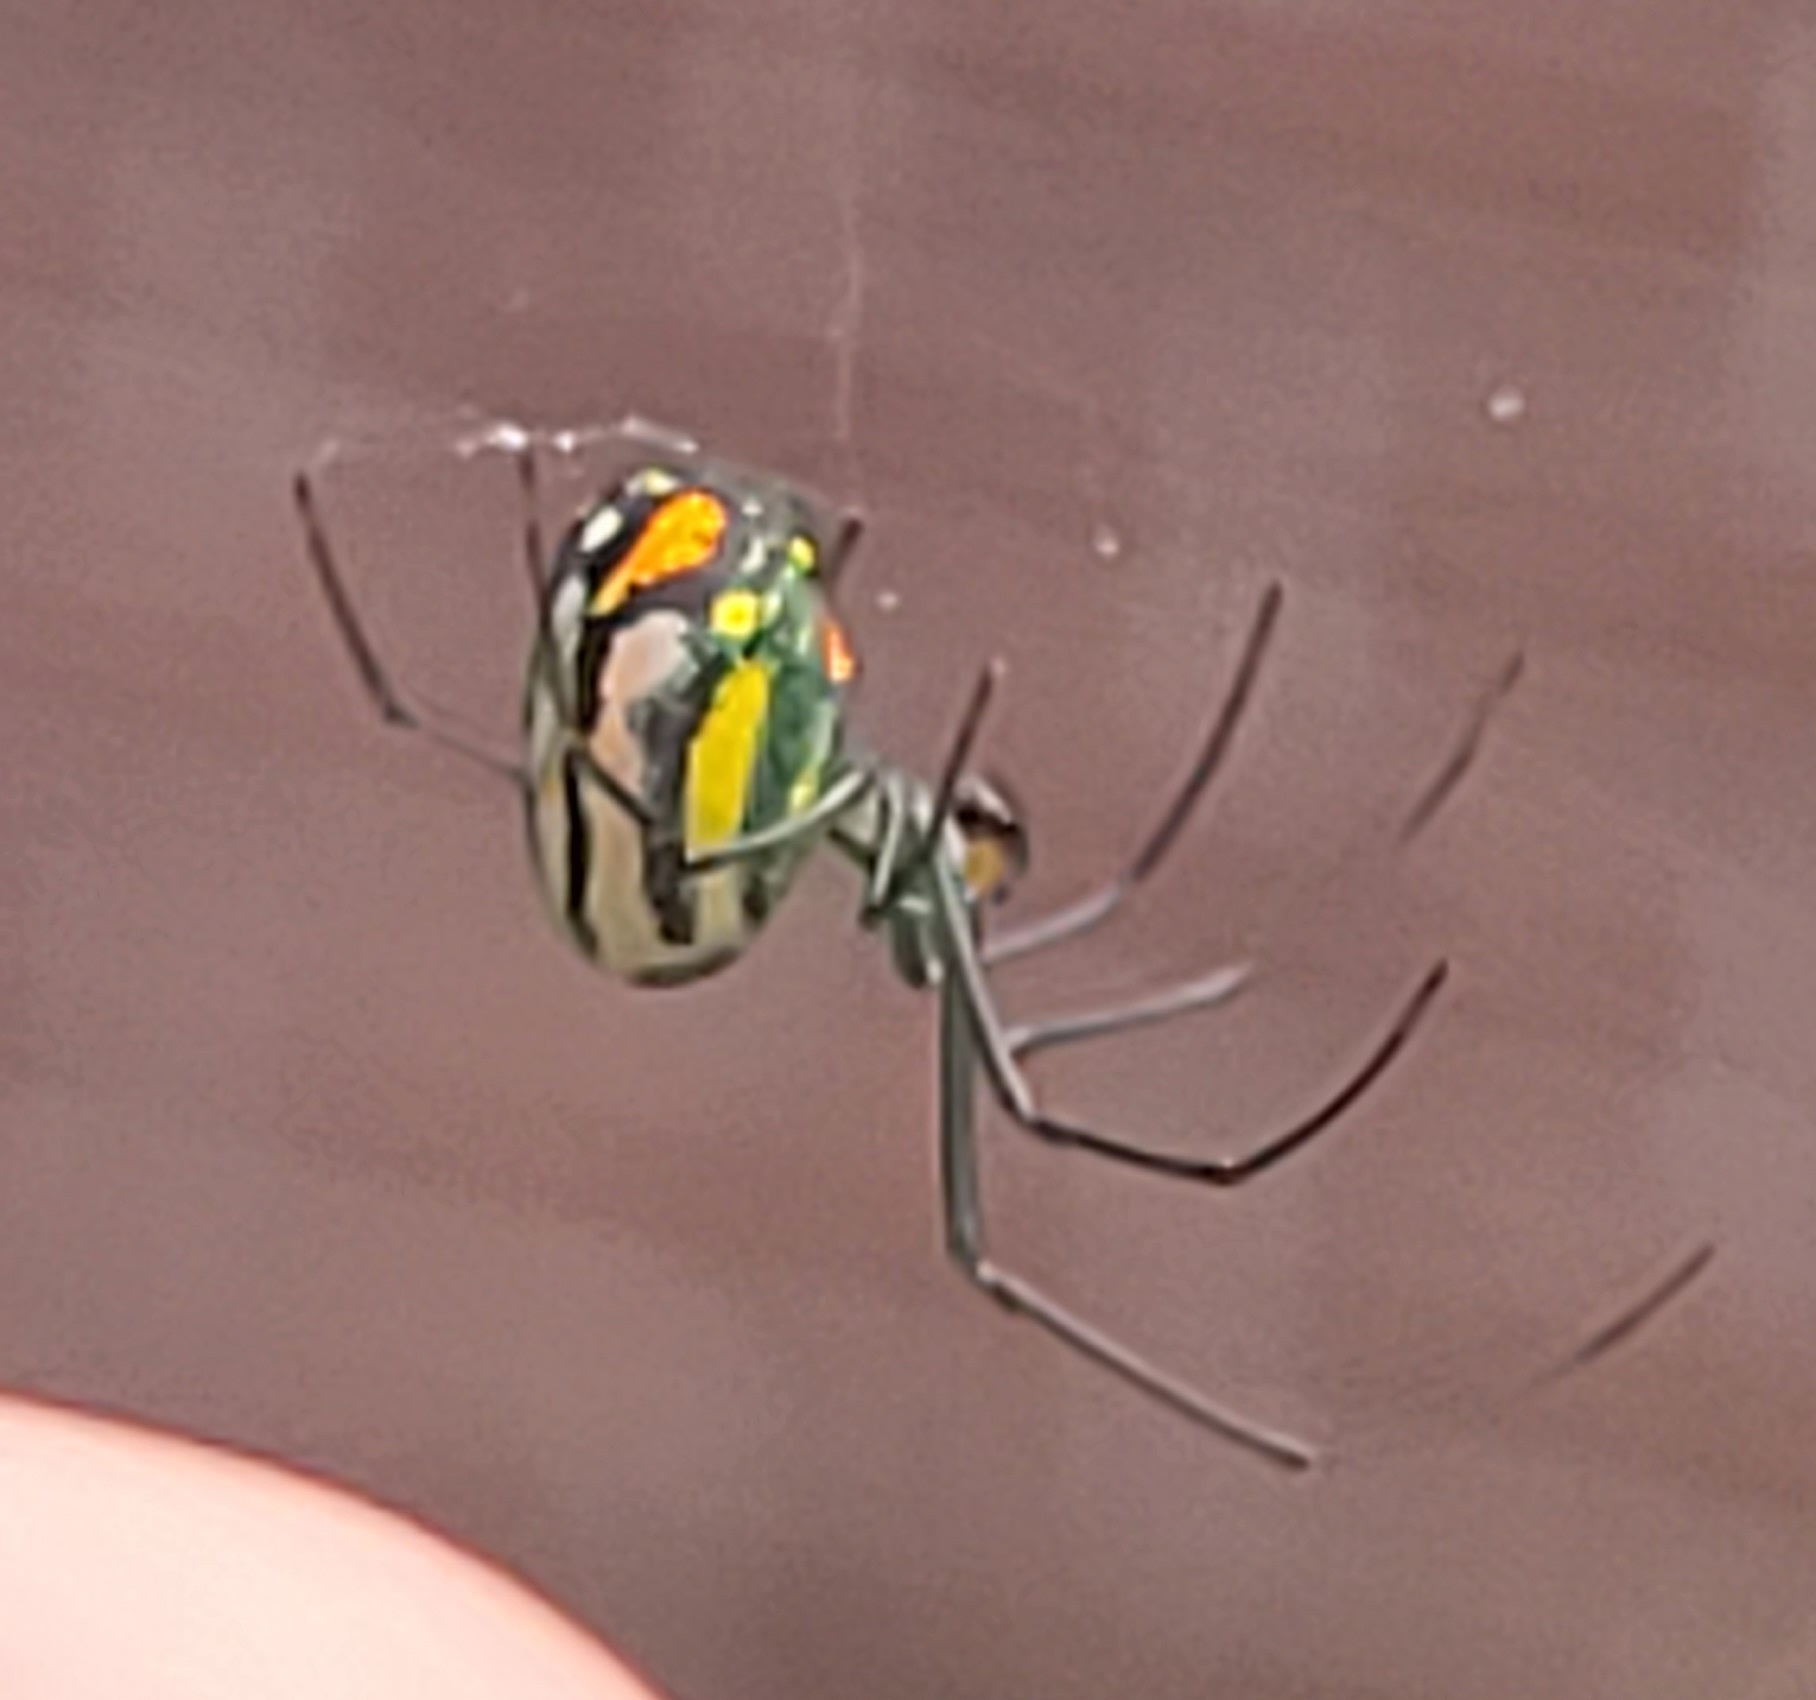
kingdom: Animalia
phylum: Arthropoda
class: Arachnida
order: Araneae
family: Tetragnathidae
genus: Leucauge
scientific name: Leucauge argyrobapta
